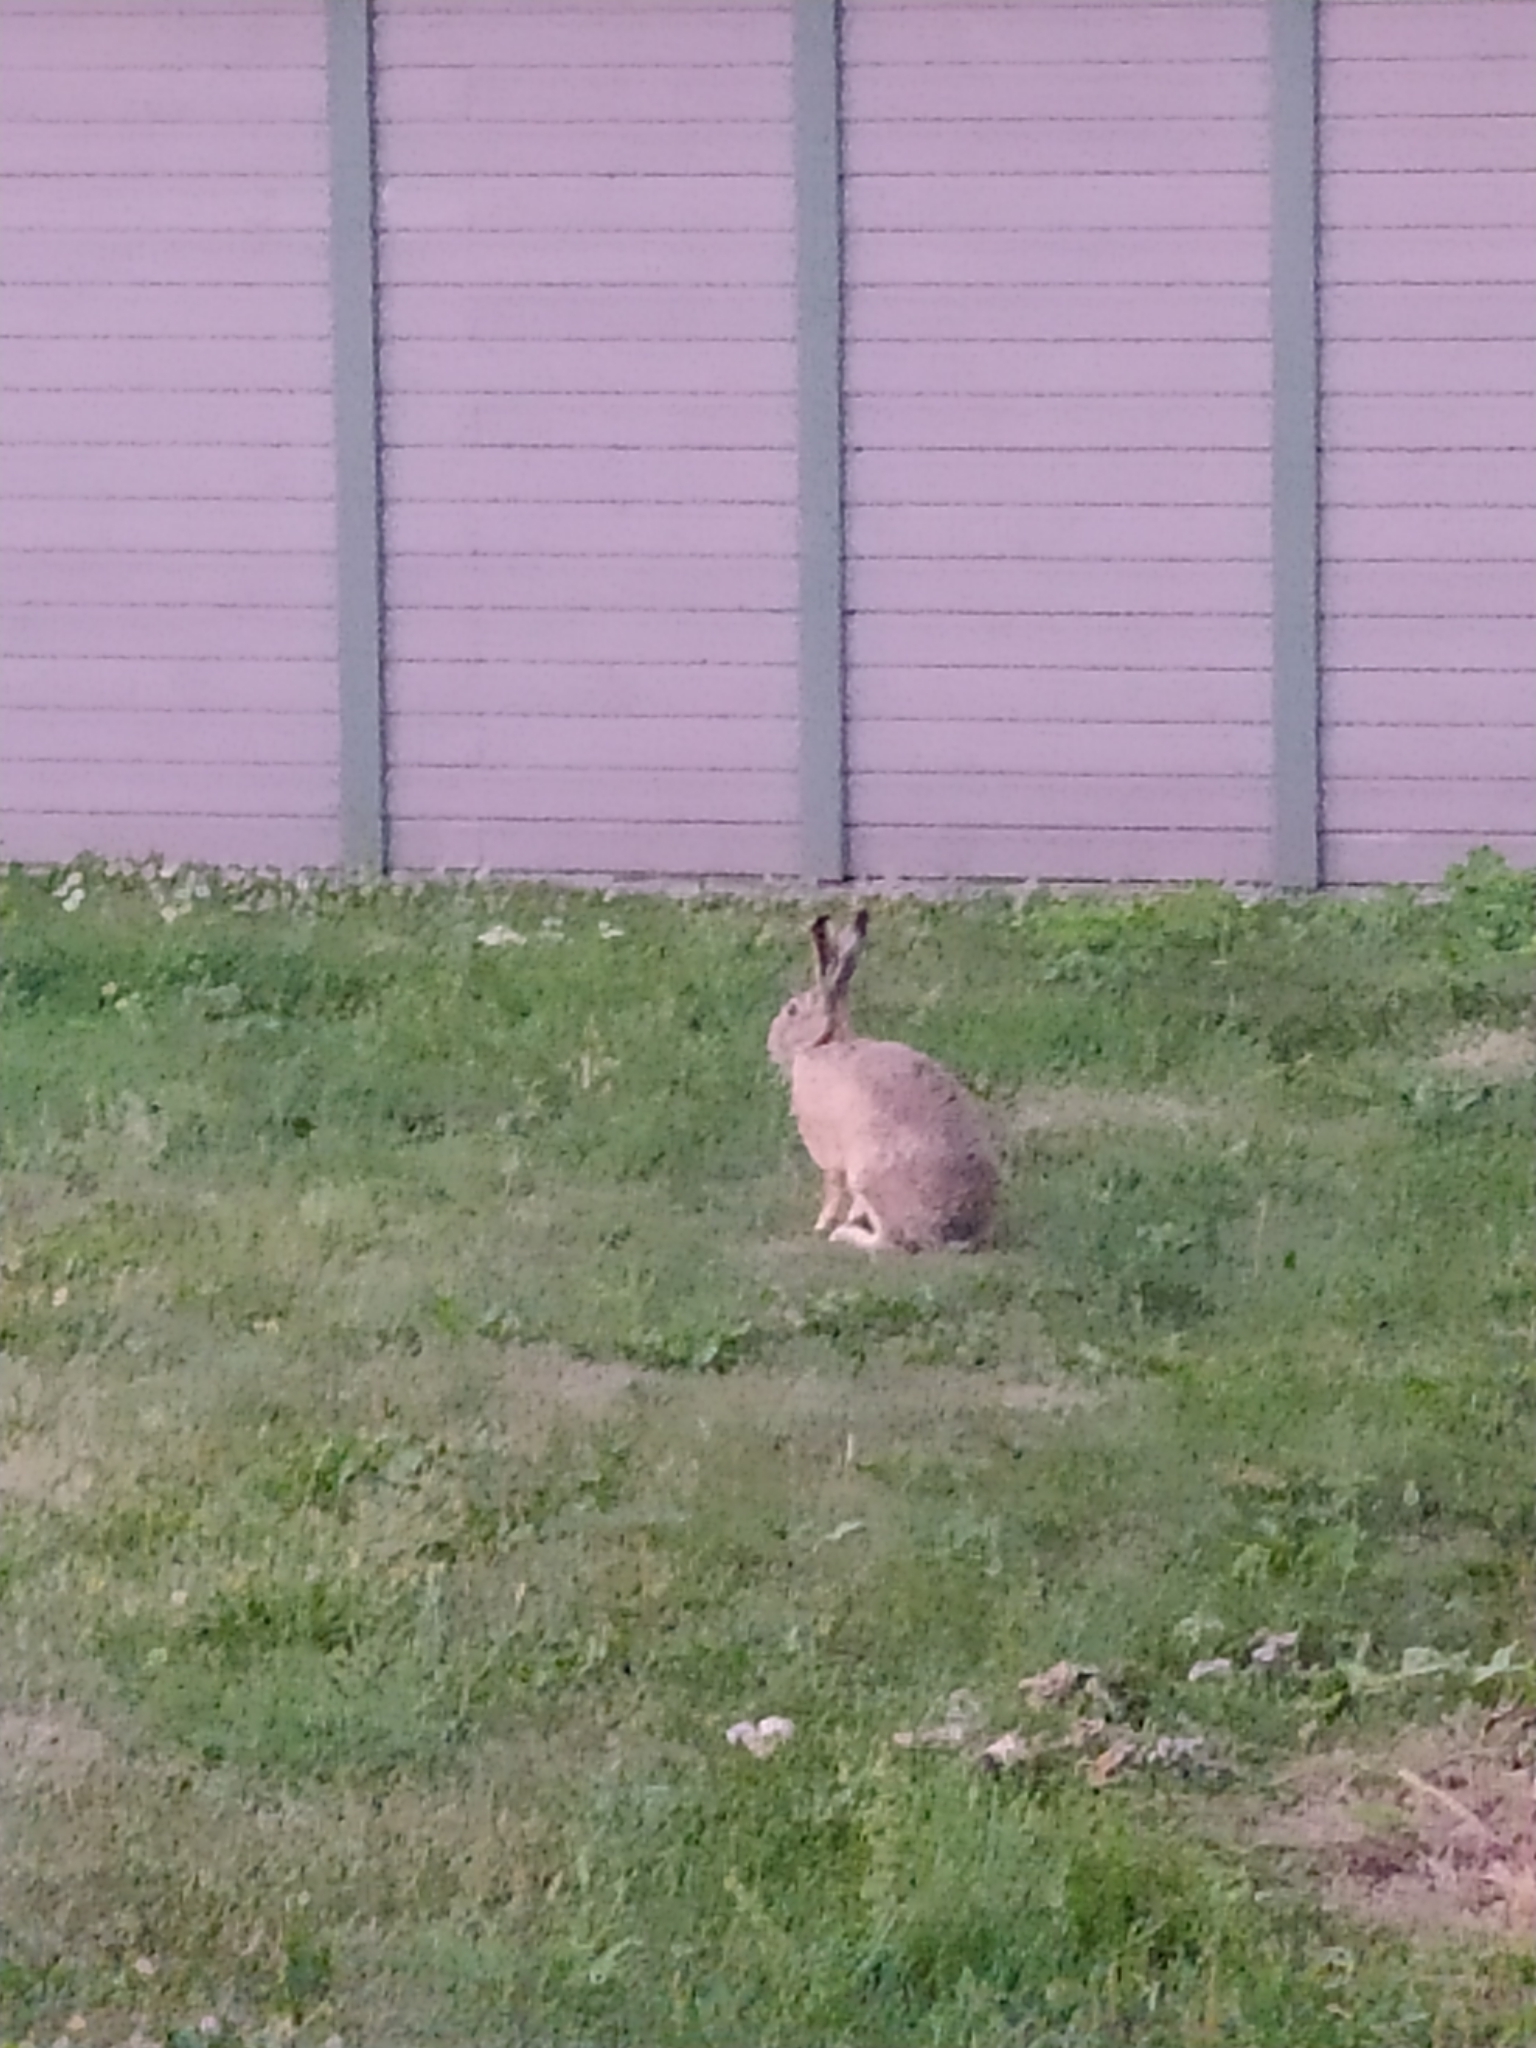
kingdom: Animalia
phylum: Chordata
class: Mammalia
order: Lagomorpha
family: Leporidae
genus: Lepus
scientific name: Lepus europaeus
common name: European hare
